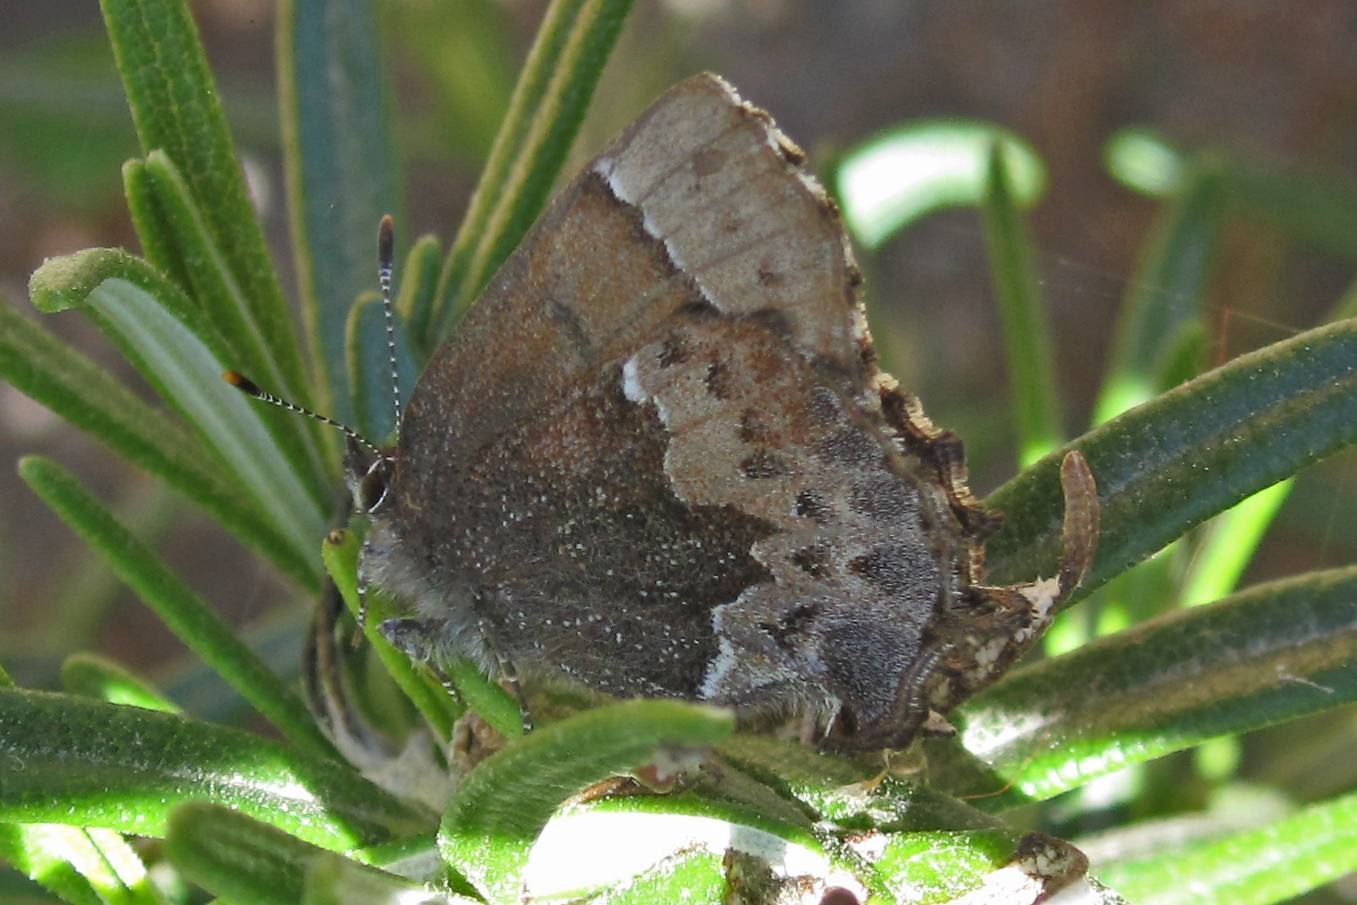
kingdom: Animalia
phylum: Arthropoda
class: Insecta
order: Lepidoptera
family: Lycaenidae
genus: Incisalia
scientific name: Incisalia henrici
